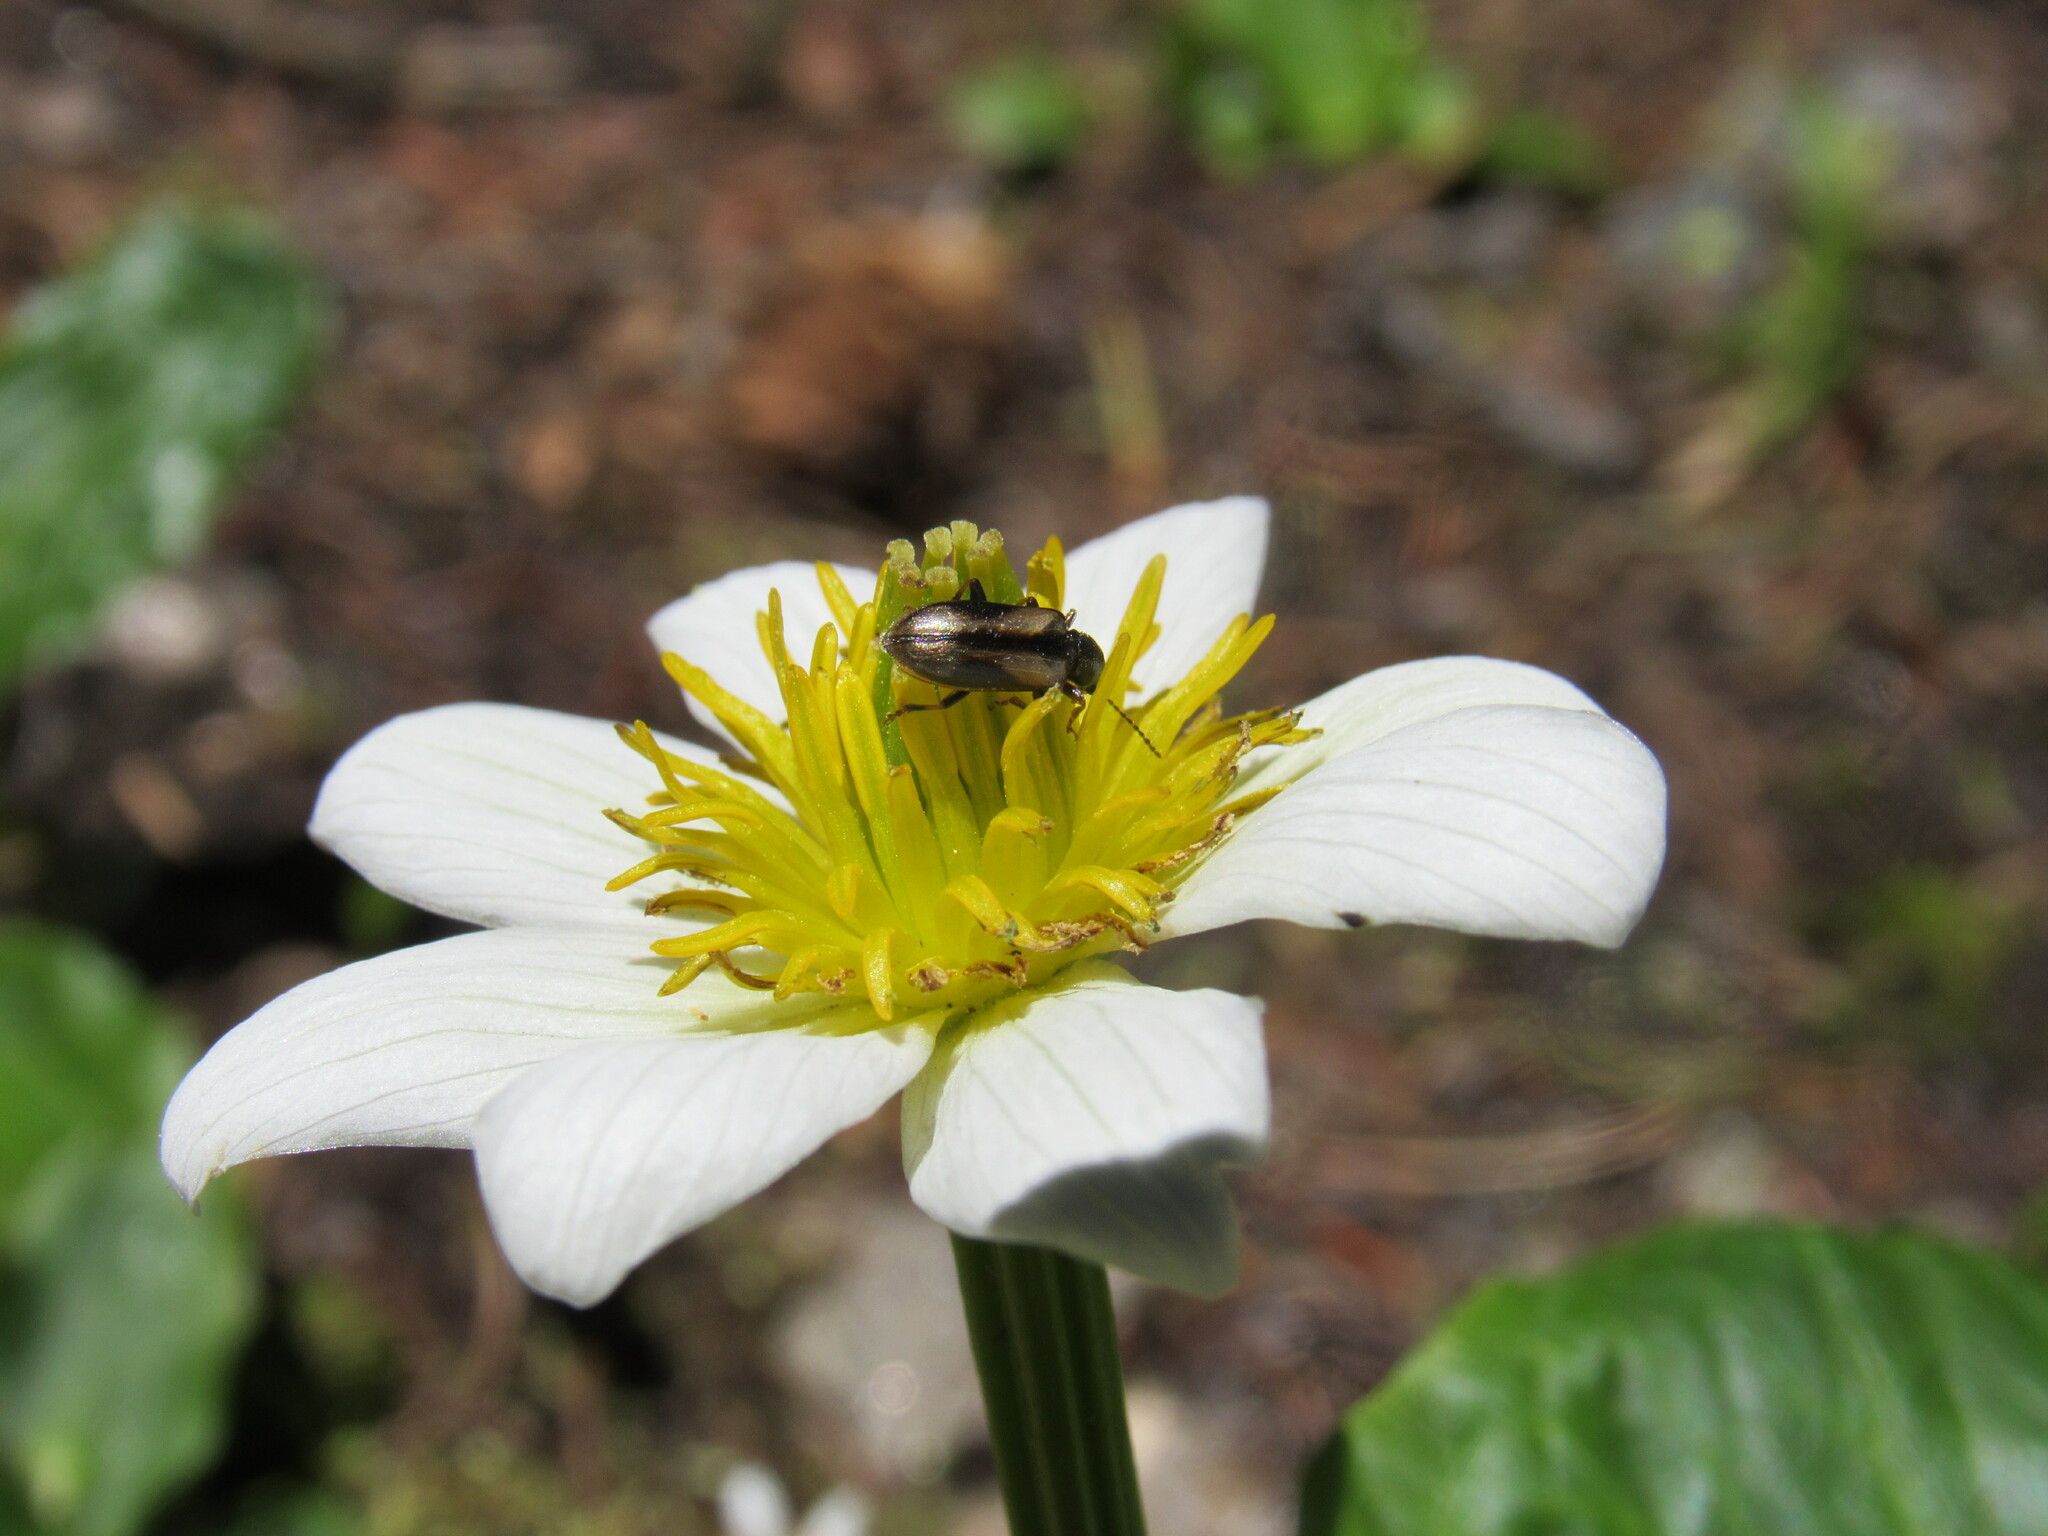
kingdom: Animalia
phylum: Arthropoda
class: Insecta
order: Coleoptera
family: Orsodacnidae
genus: Orsodacne
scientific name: Orsodacne atra
